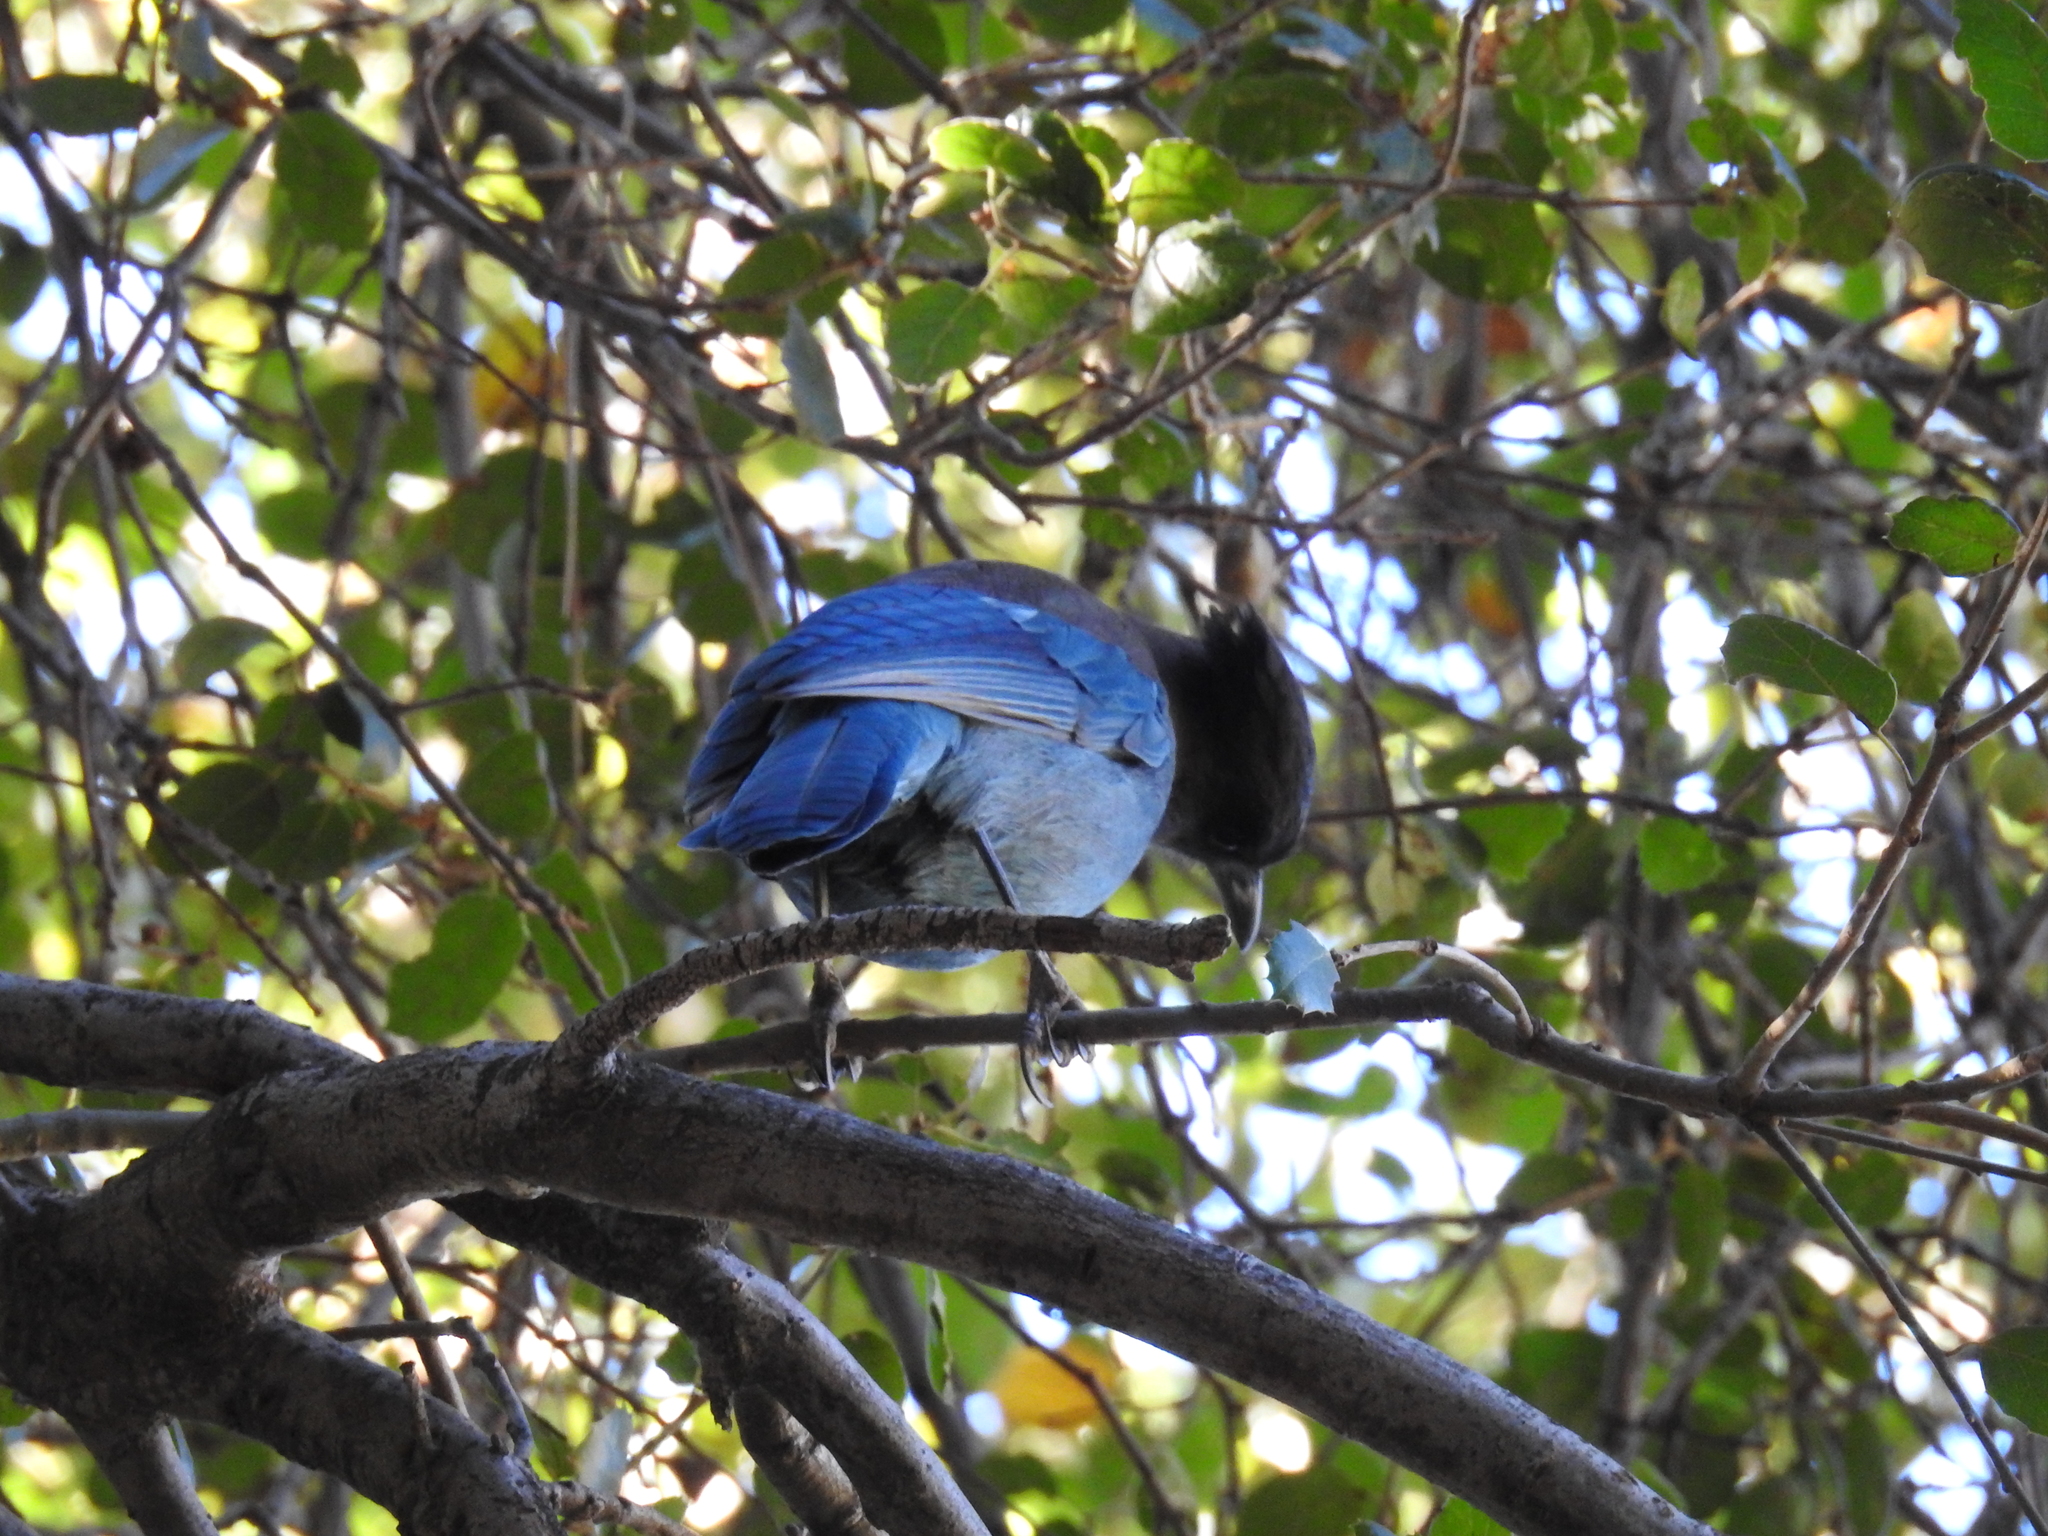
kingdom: Animalia
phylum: Chordata
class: Aves
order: Passeriformes
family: Corvidae
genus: Cyanocitta
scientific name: Cyanocitta stelleri
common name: Steller's jay
